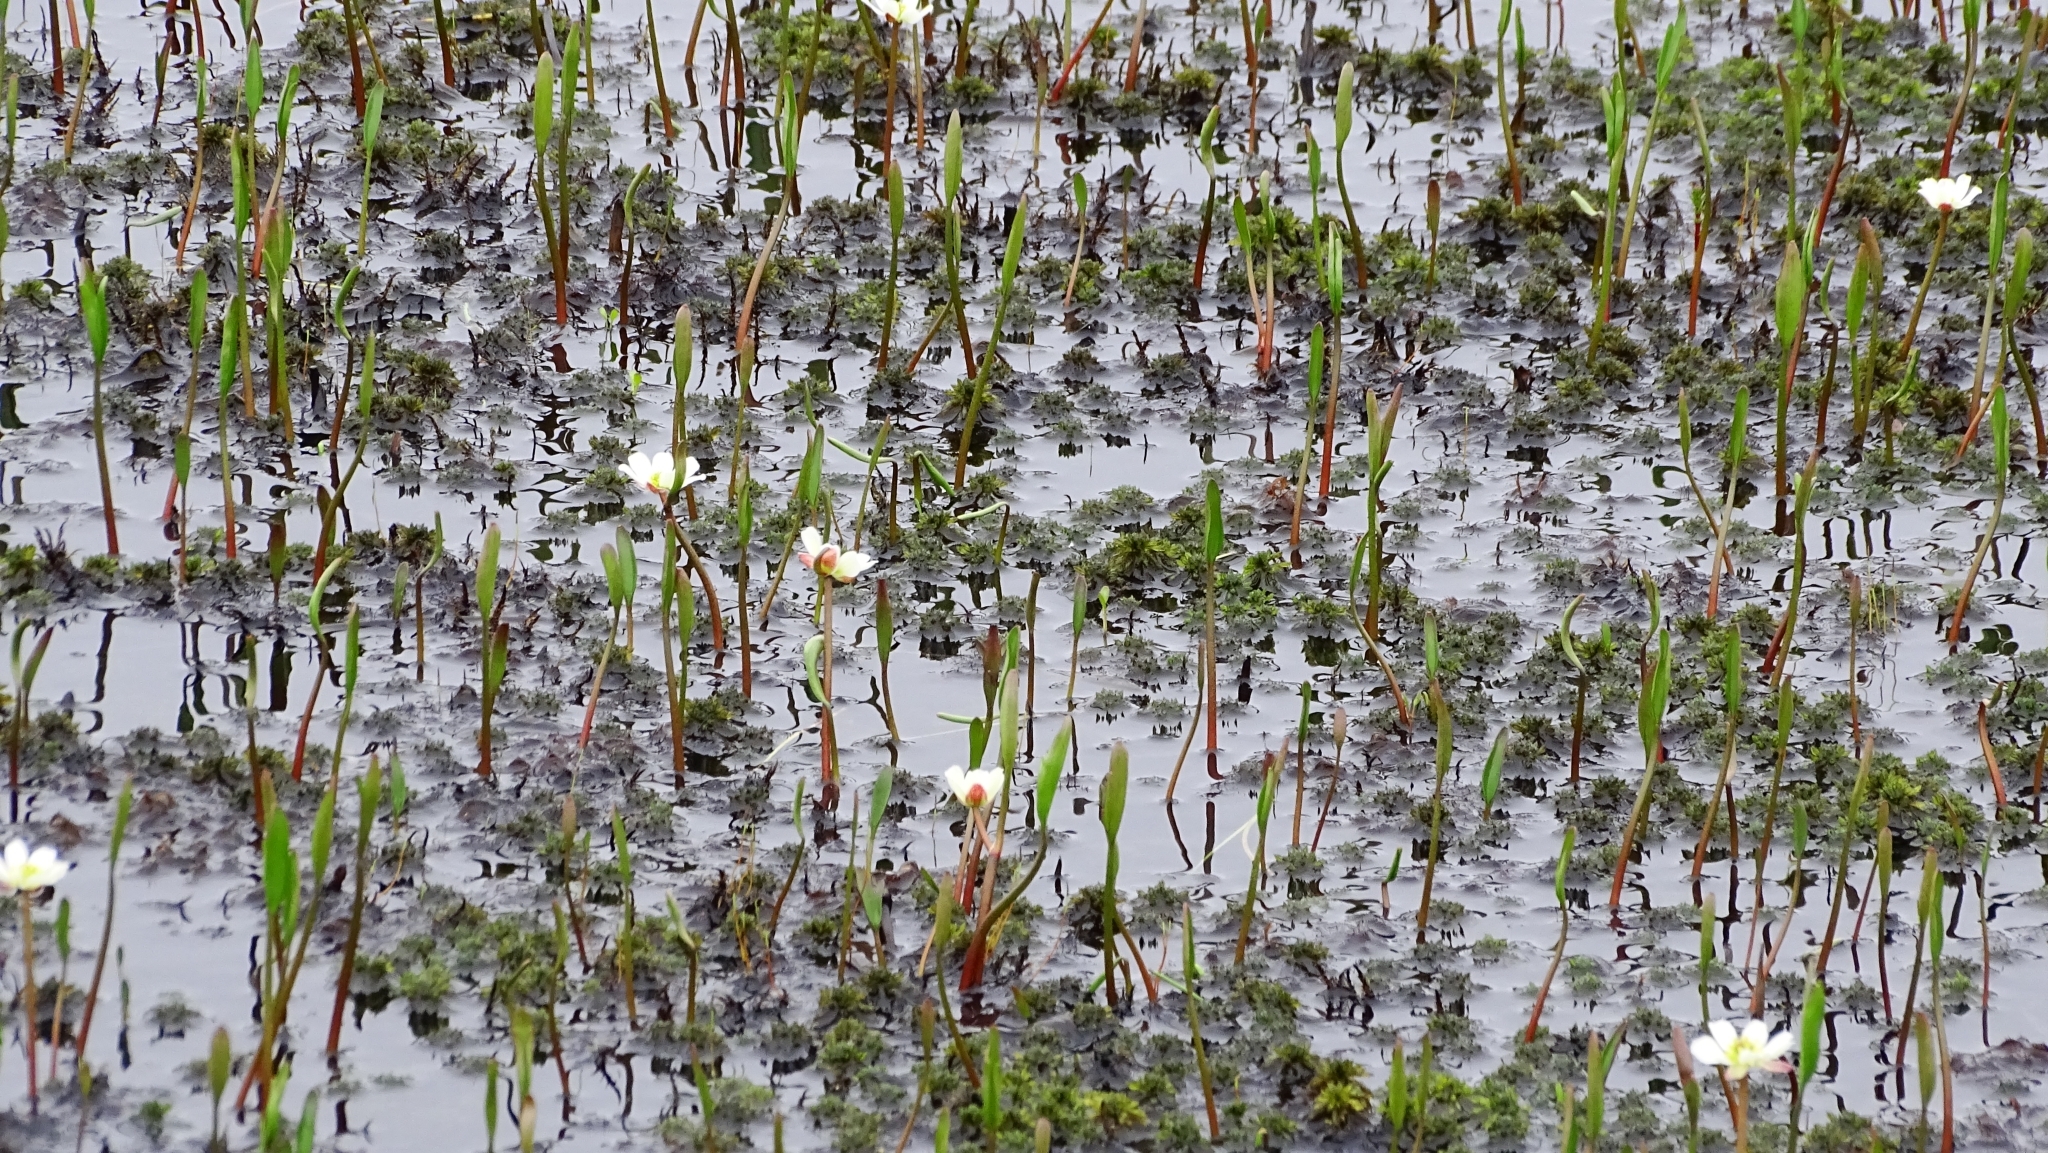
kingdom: Plantae
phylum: Tracheophyta
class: Magnoliopsida
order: Ranunculales
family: Ranunculaceae
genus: Coptidium
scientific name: Coptidium pallasii
